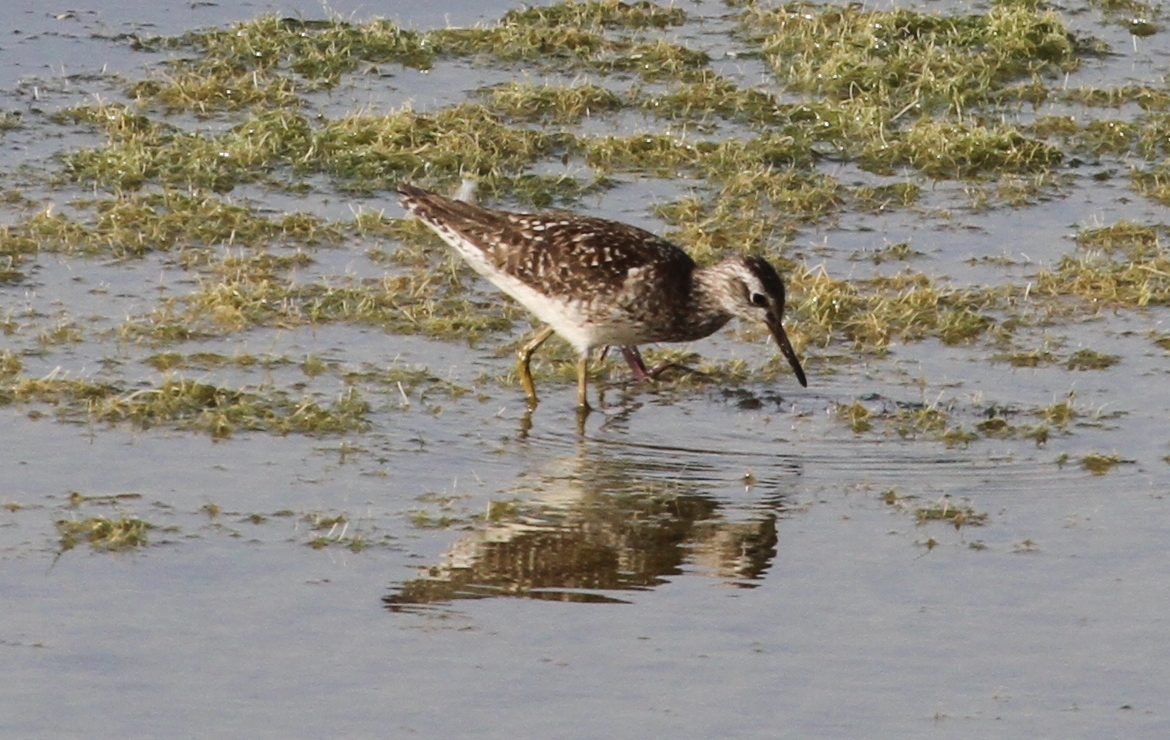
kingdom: Animalia
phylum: Chordata
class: Aves
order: Charadriiformes
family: Scolopacidae
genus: Tringa
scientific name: Tringa glareola
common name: Wood sandpiper
